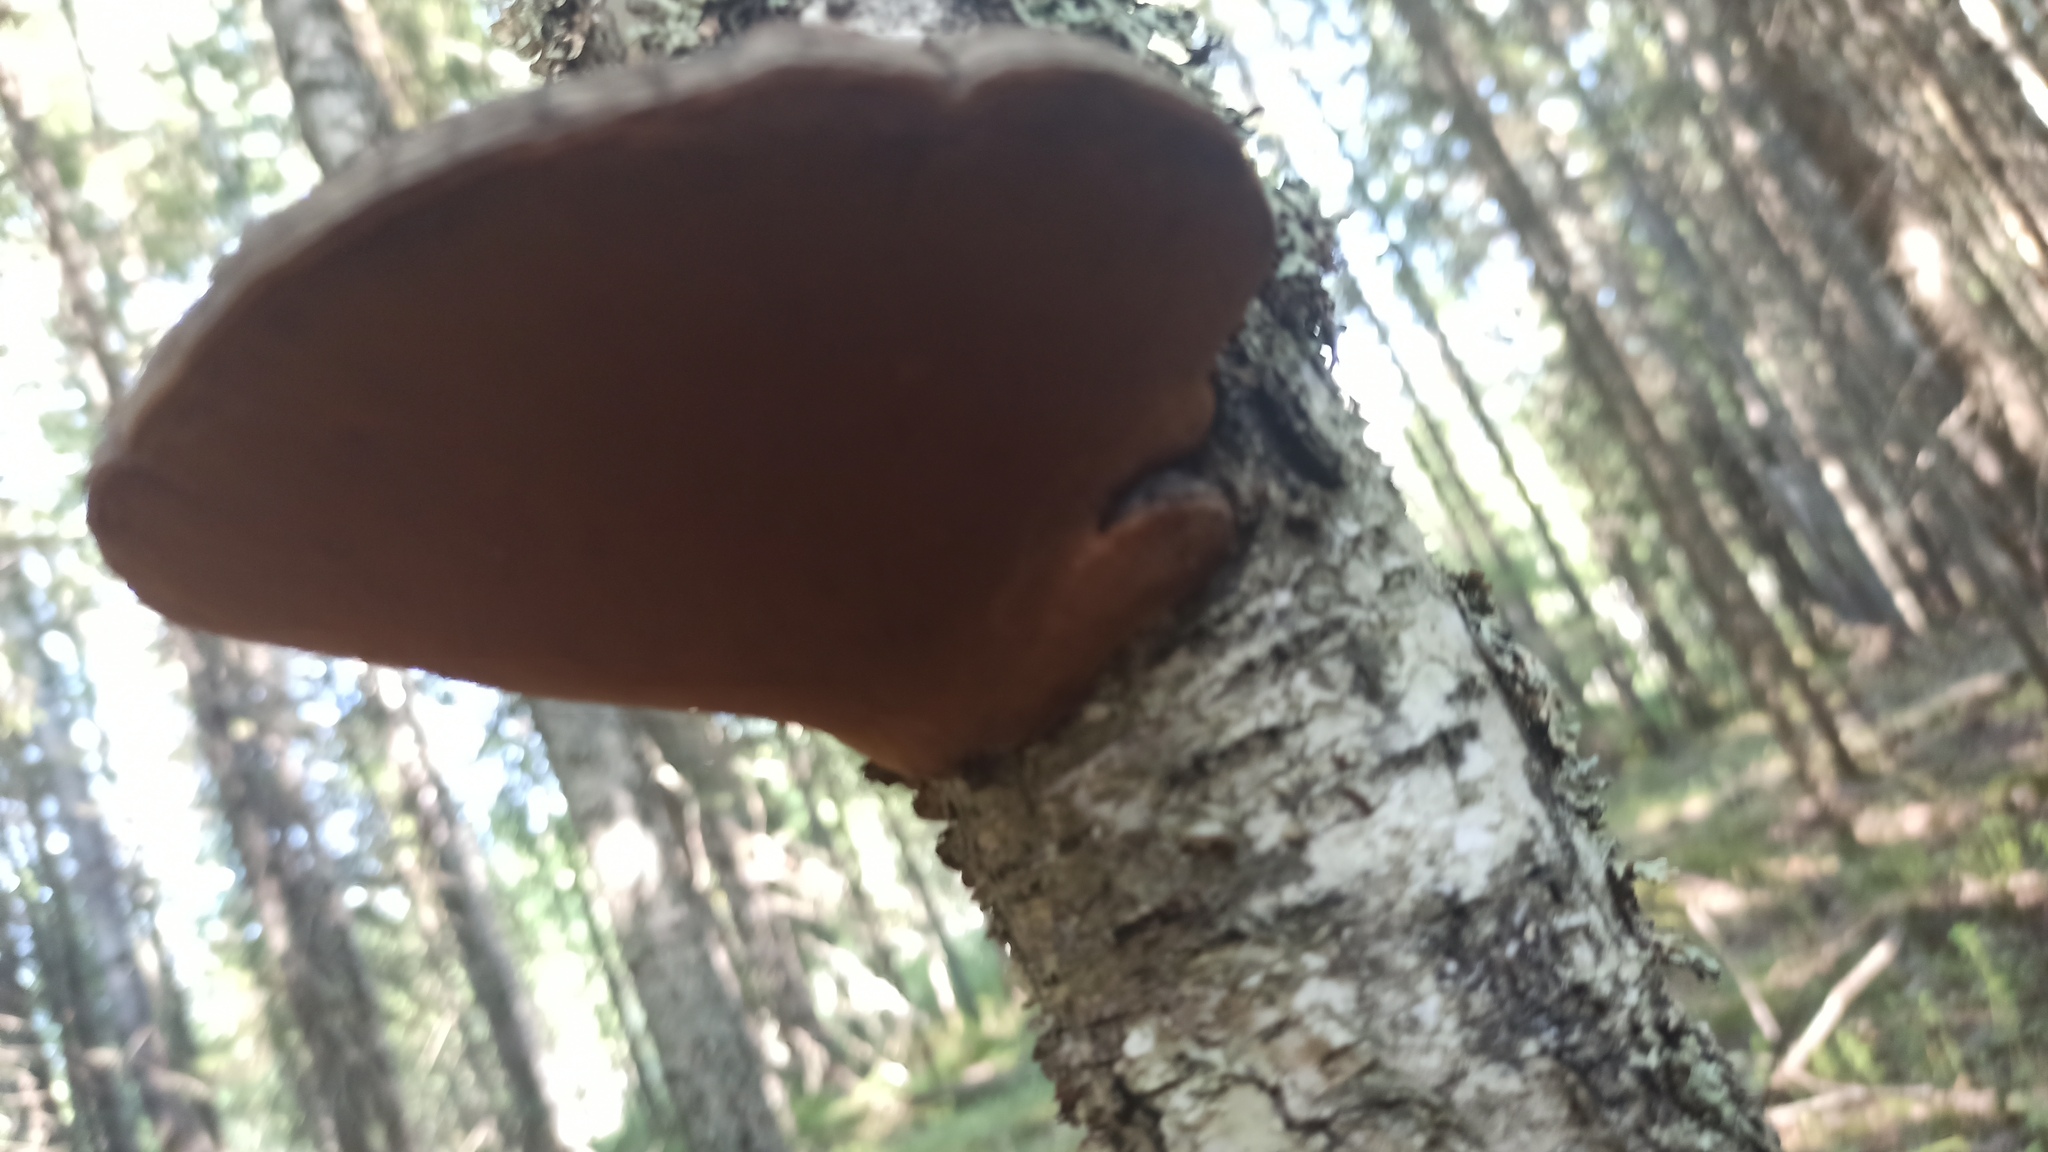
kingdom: Fungi
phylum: Basidiomycota
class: Agaricomycetes
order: Hymenochaetales
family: Hymenochaetaceae
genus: Phellinus
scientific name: Phellinus igniarius
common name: Willow bracket
